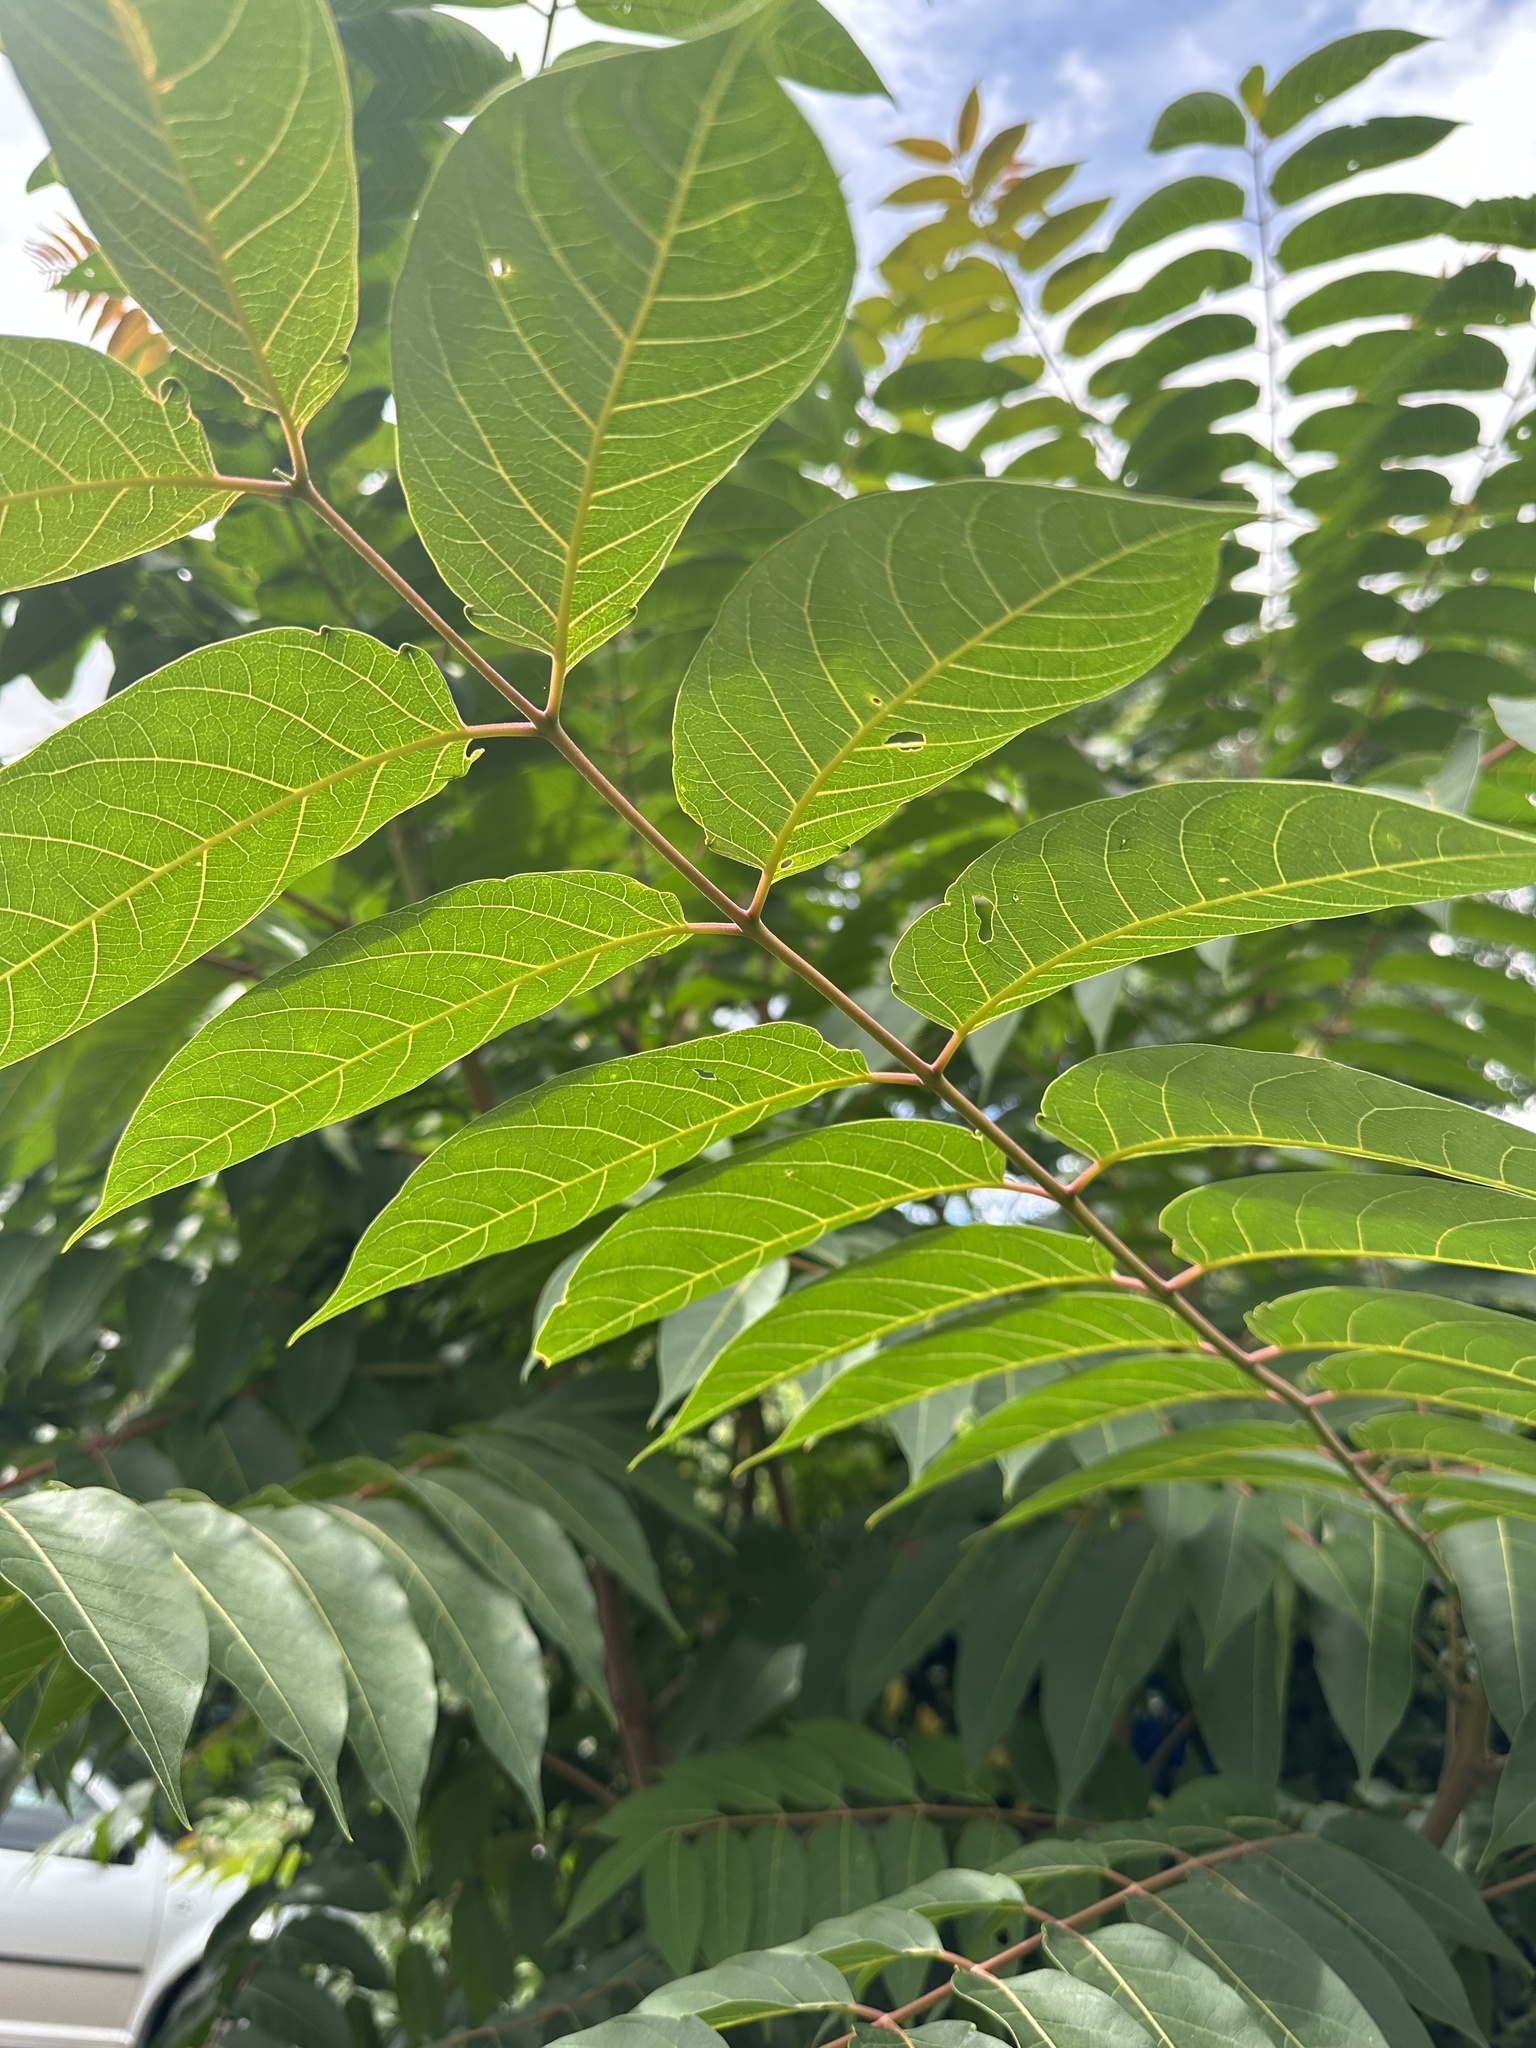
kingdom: Plantae
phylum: Tracheophyta
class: Magnoliopsida
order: Sapindales
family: Simaroubaceae
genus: Ailanthus
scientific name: Ailanthus altissima
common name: Tree-of-heaven
